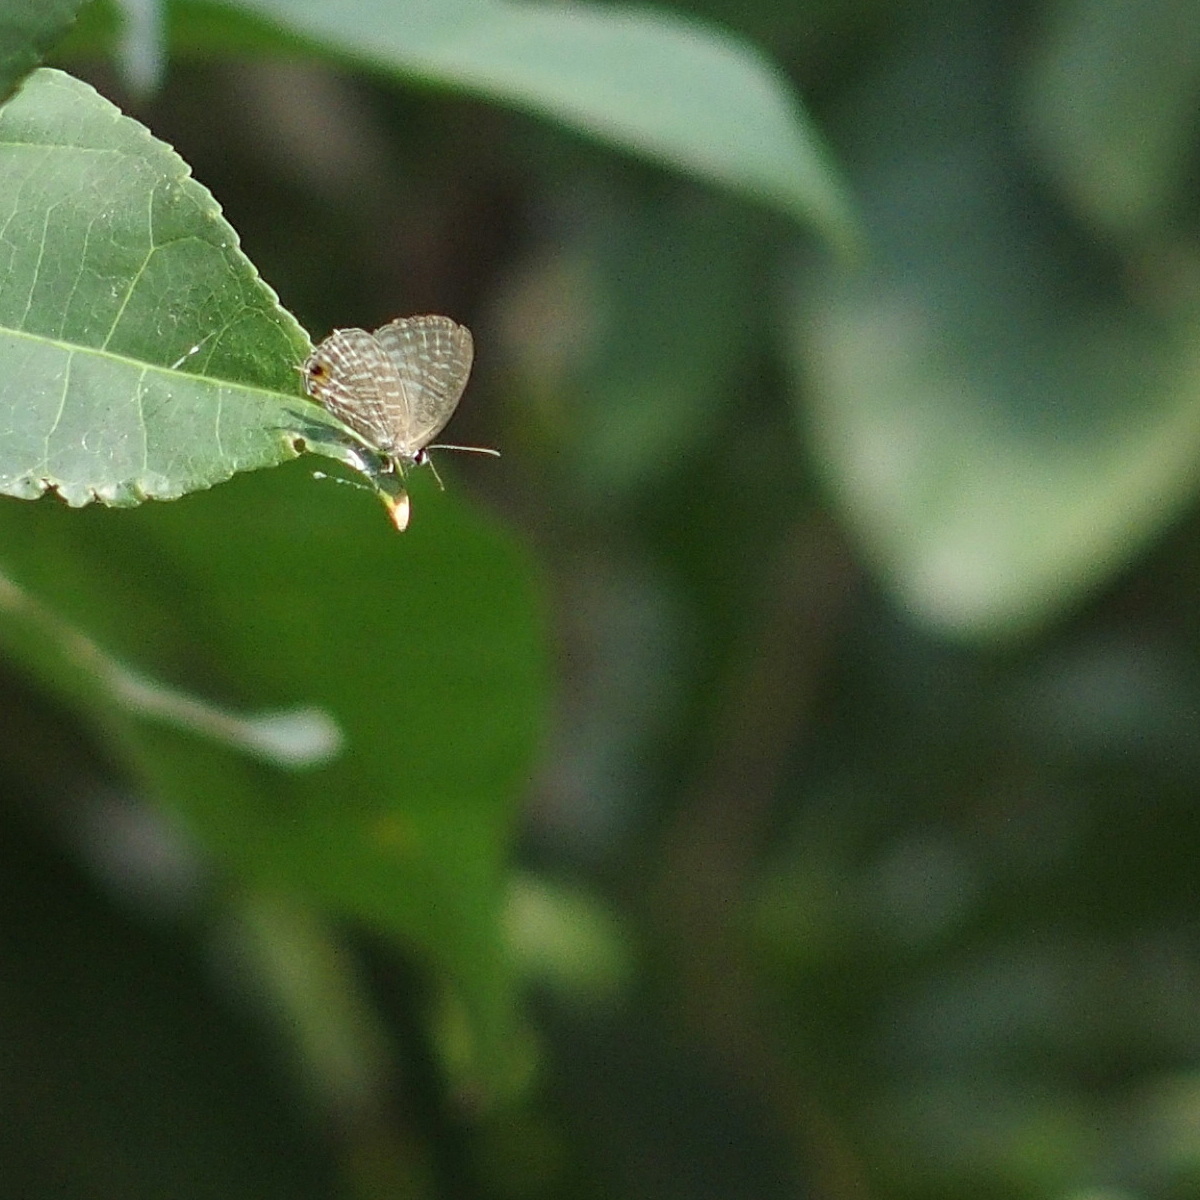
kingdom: Animalia
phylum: Arthropoda
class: Insecta
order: Lepidoptera
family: Lycaenidae
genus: Jamides
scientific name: Jamides alecto
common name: Metallic cerulean
